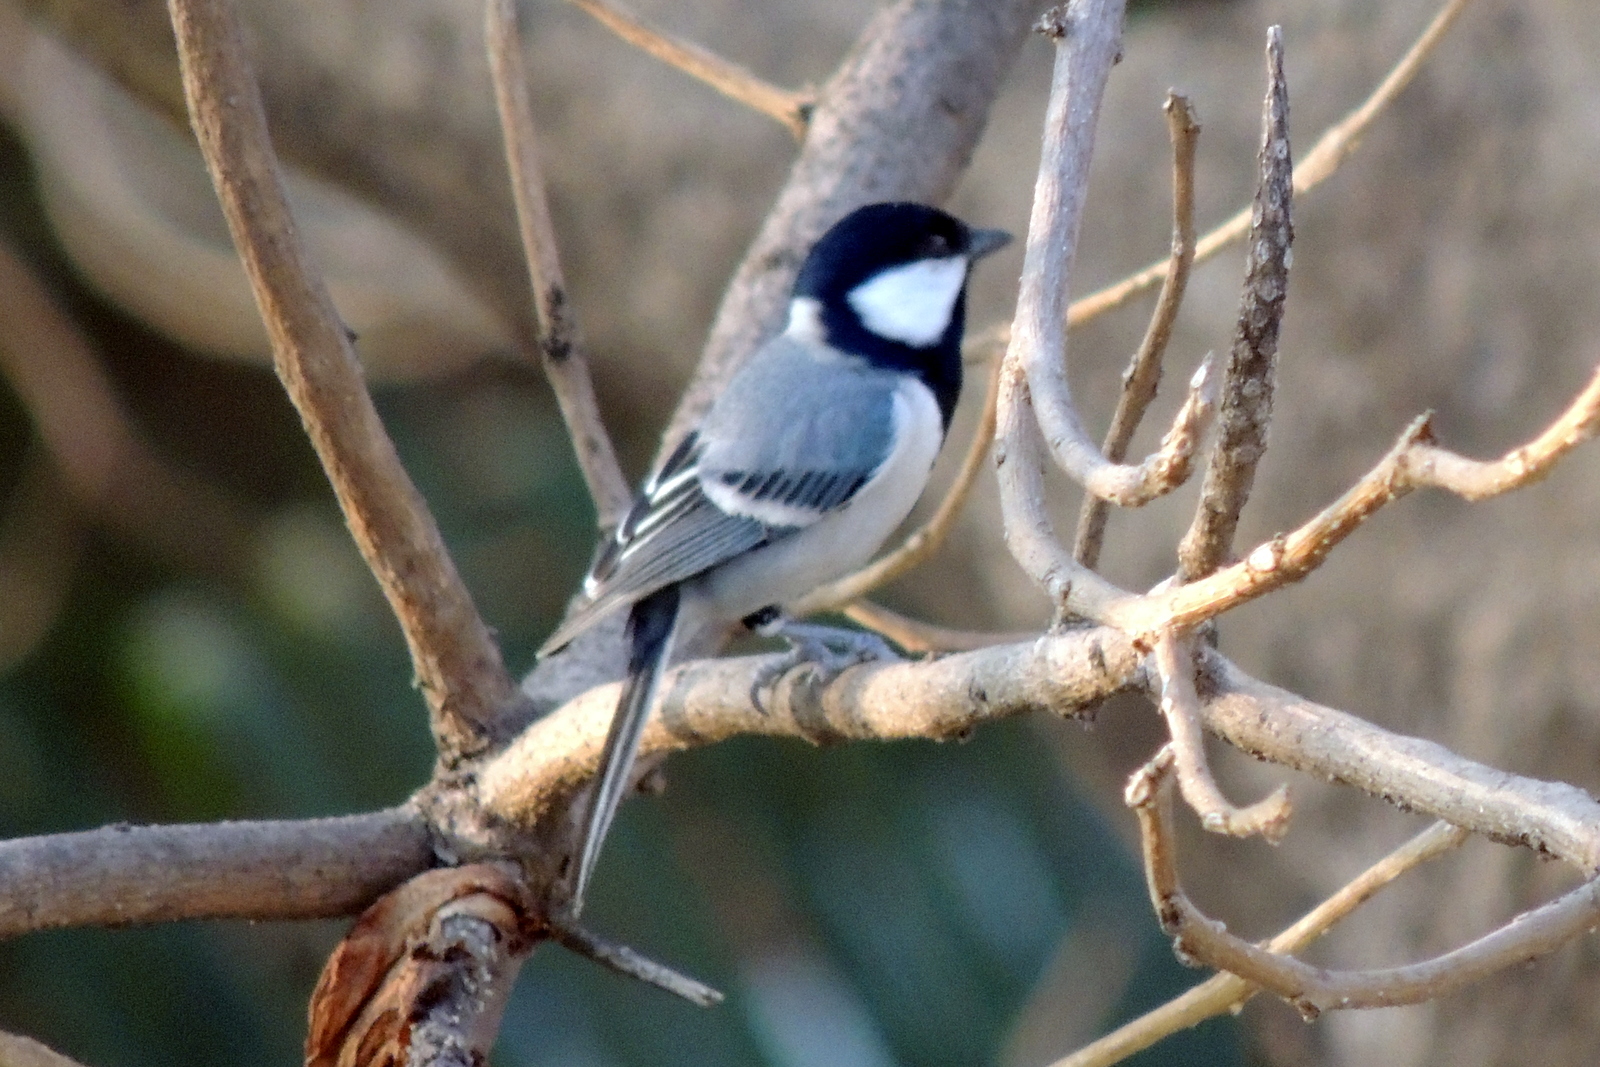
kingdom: Animalia
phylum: Chordata
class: Aves
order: Passeriformes
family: Paridae
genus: Parus
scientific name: Parus cinereus
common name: Cinereous tit
